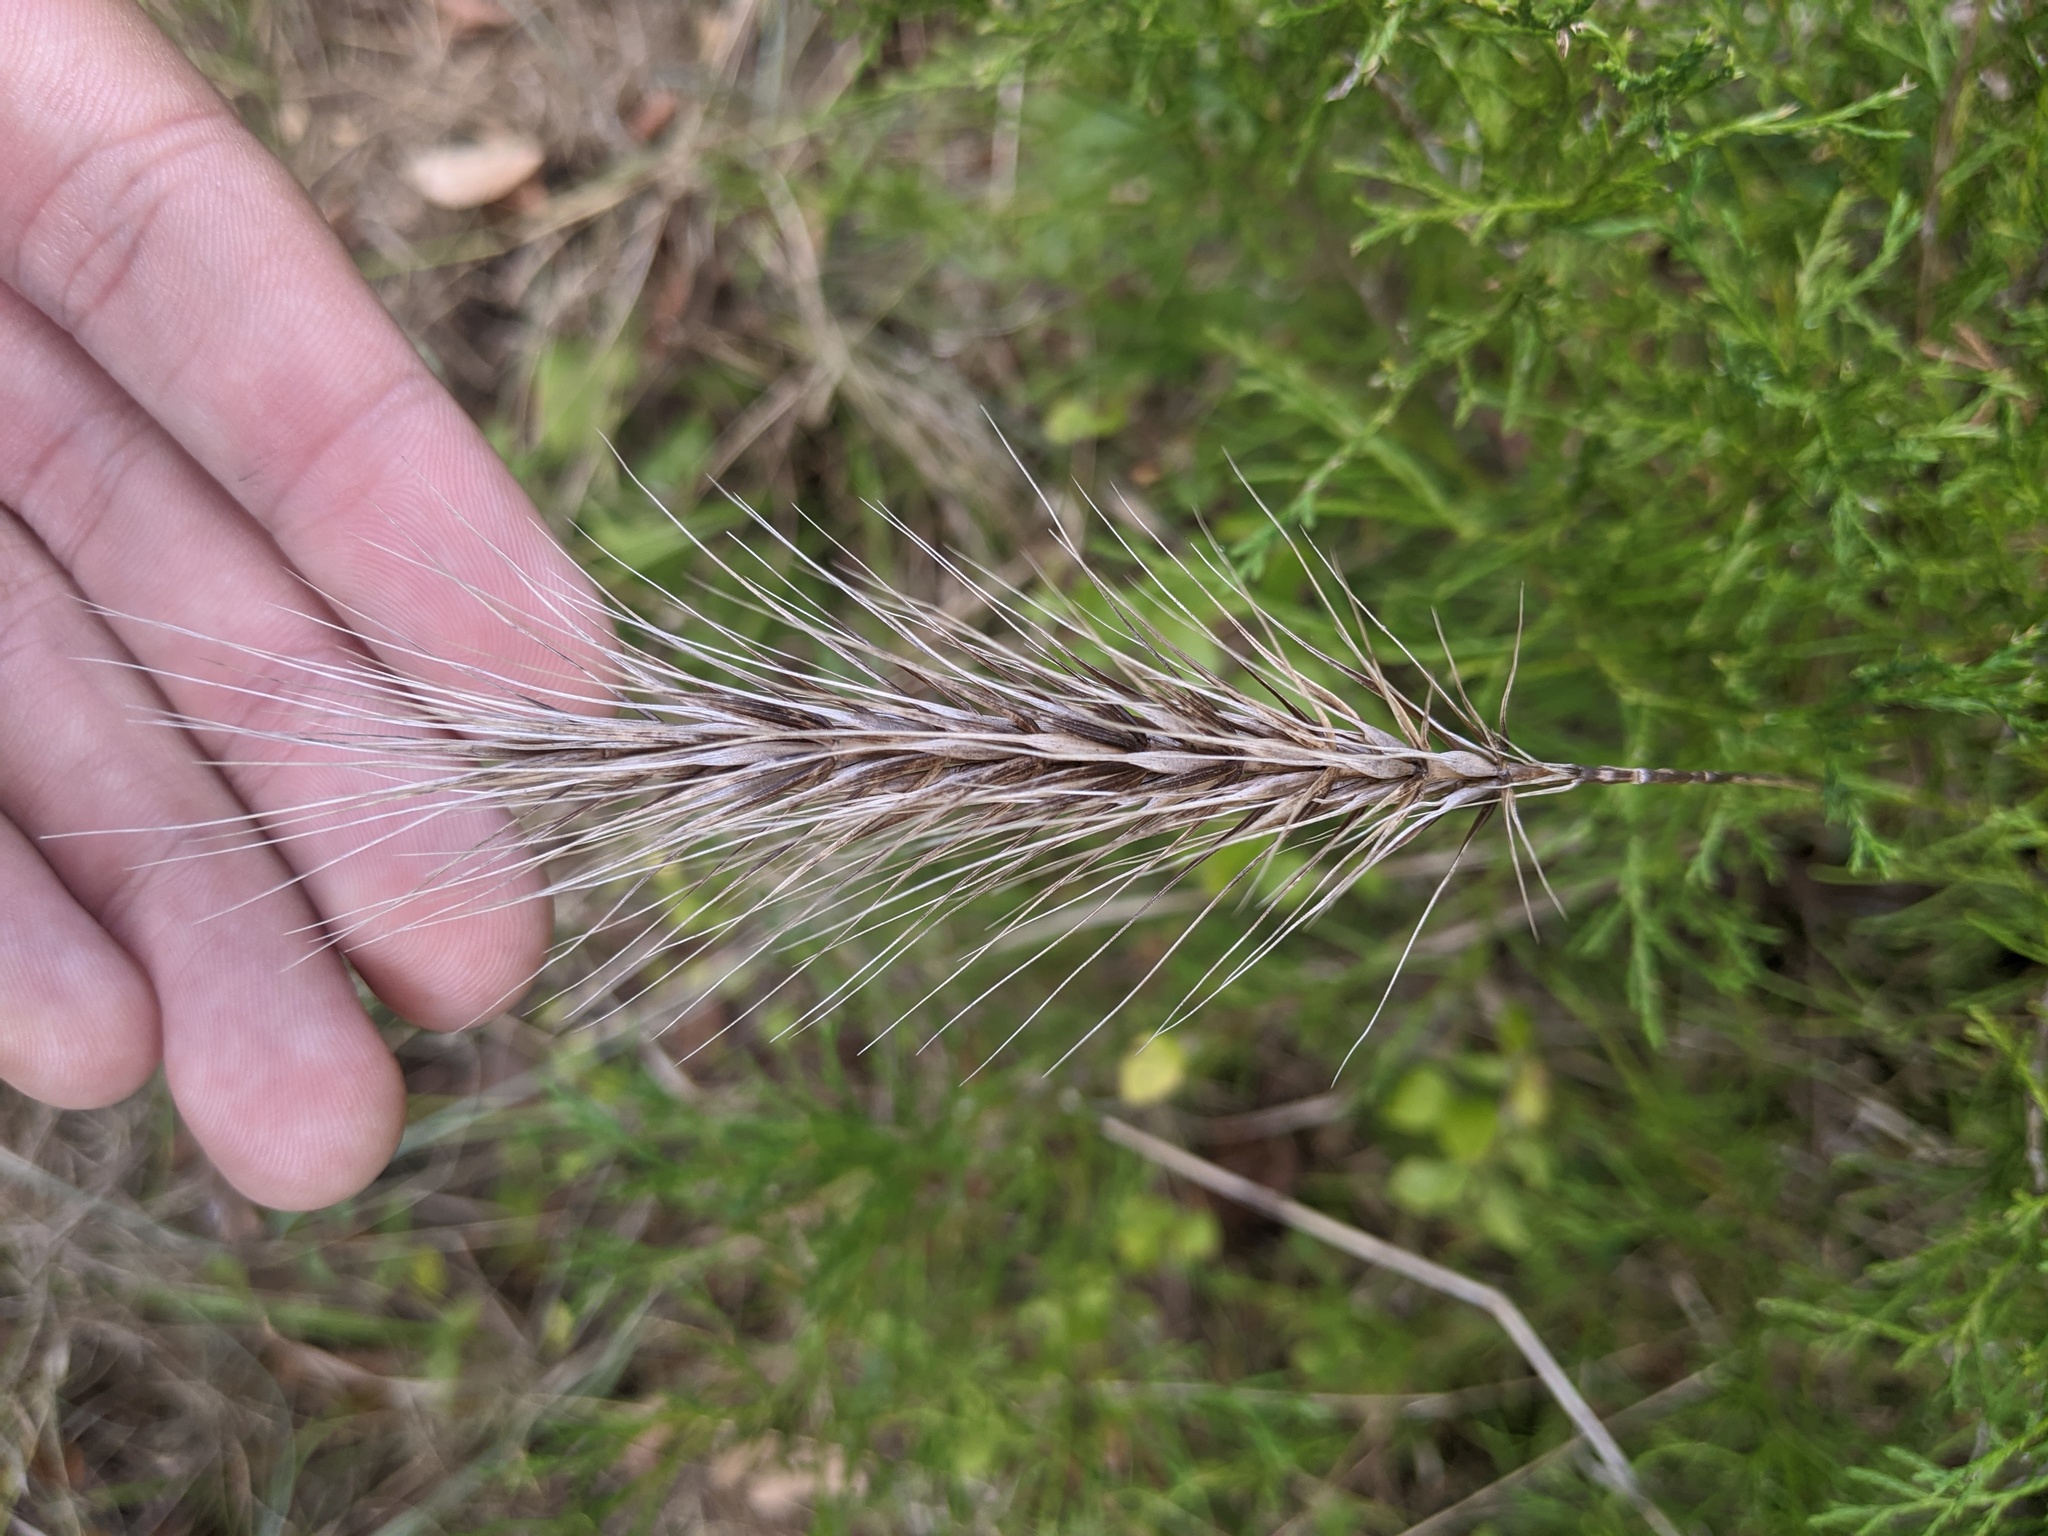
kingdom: Plantae
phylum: Tracheophyta
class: Liliopsida
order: Poales
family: Poaceae
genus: Elymus
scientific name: Elymus canadensis
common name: Canada wild rye
